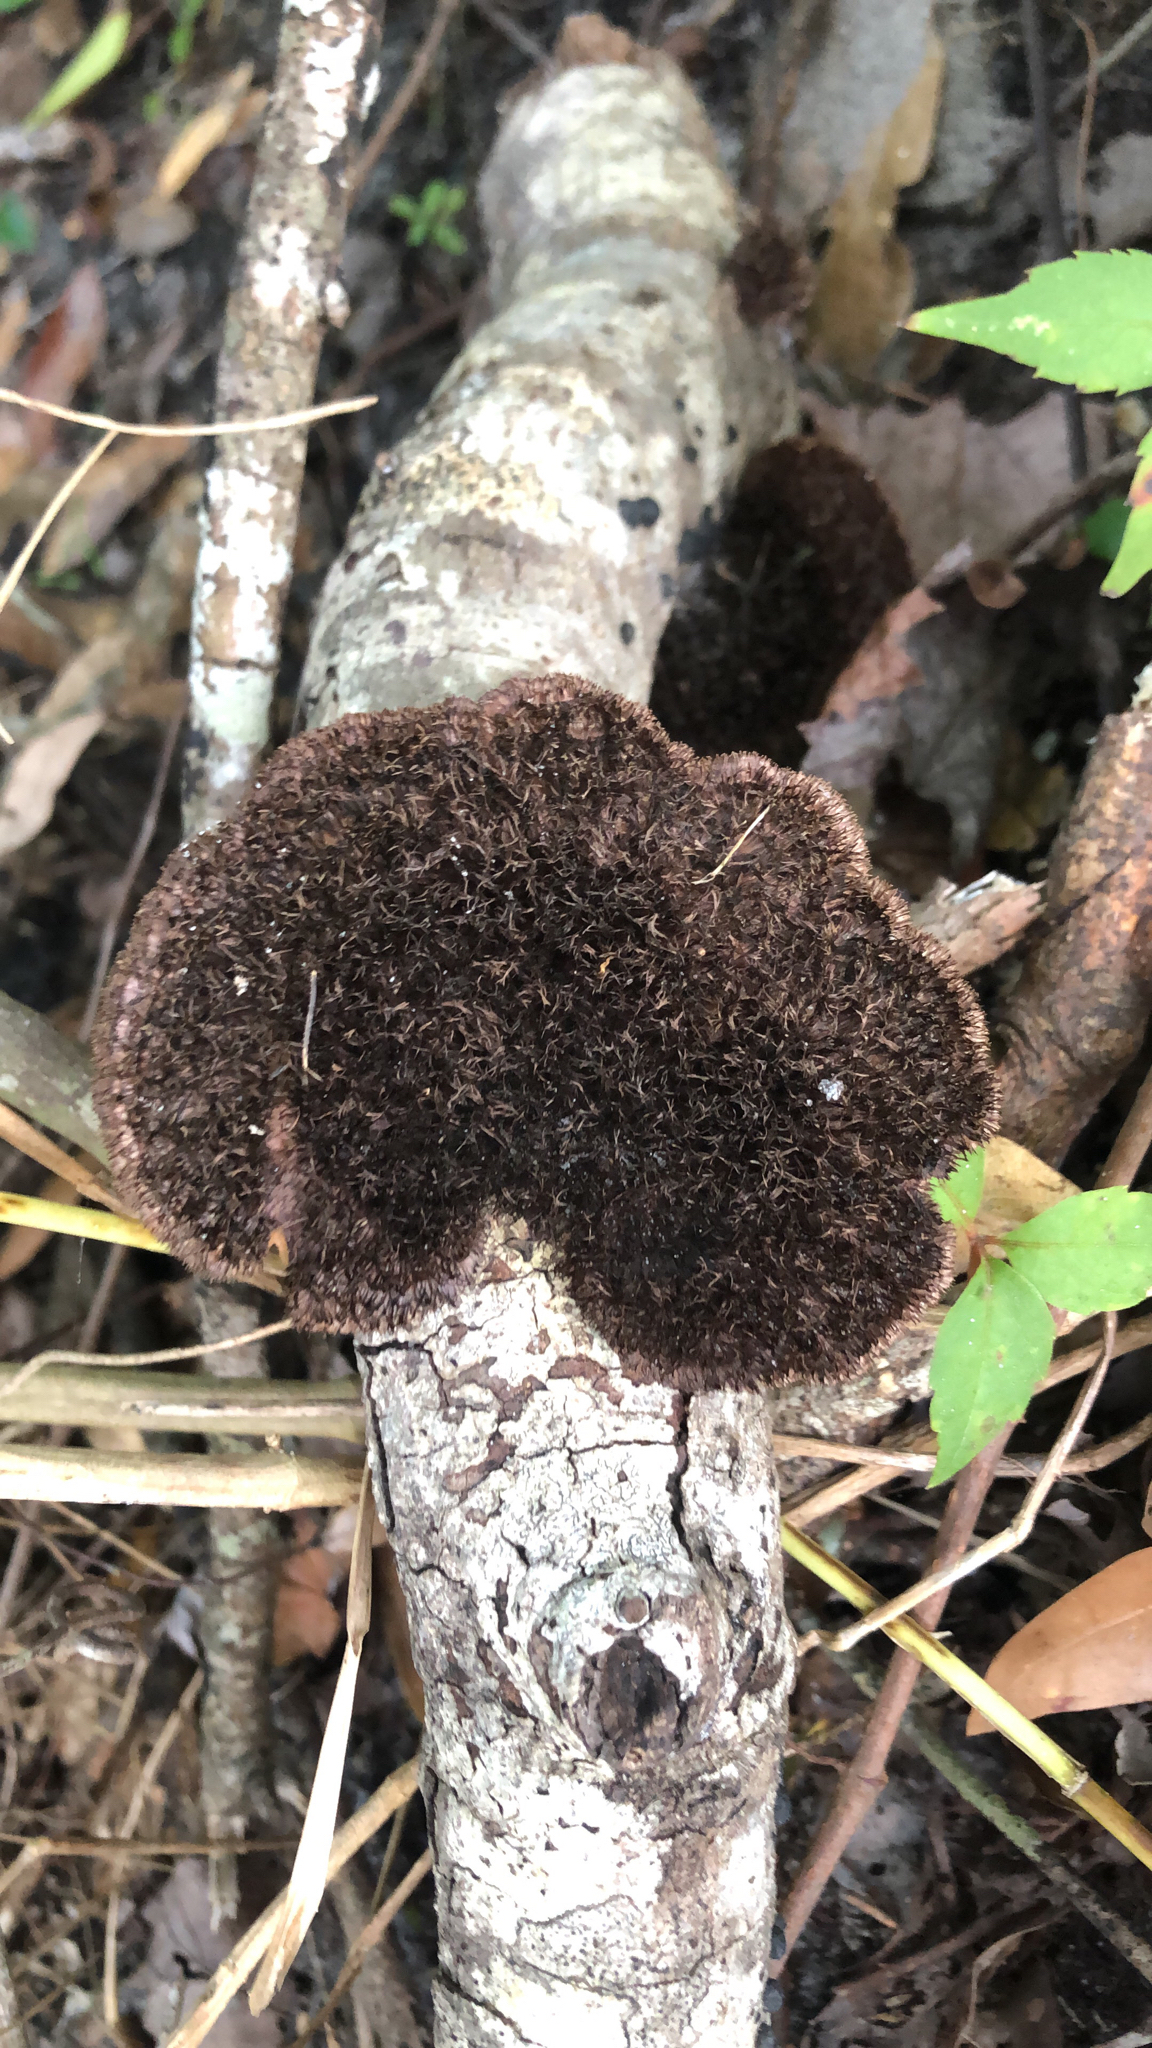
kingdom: Fungi
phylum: Basidiomycota
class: Agaricomycetes
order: Polyporales
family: Cerrenaceae
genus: Cerrena
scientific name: Cerrena hydnoides
